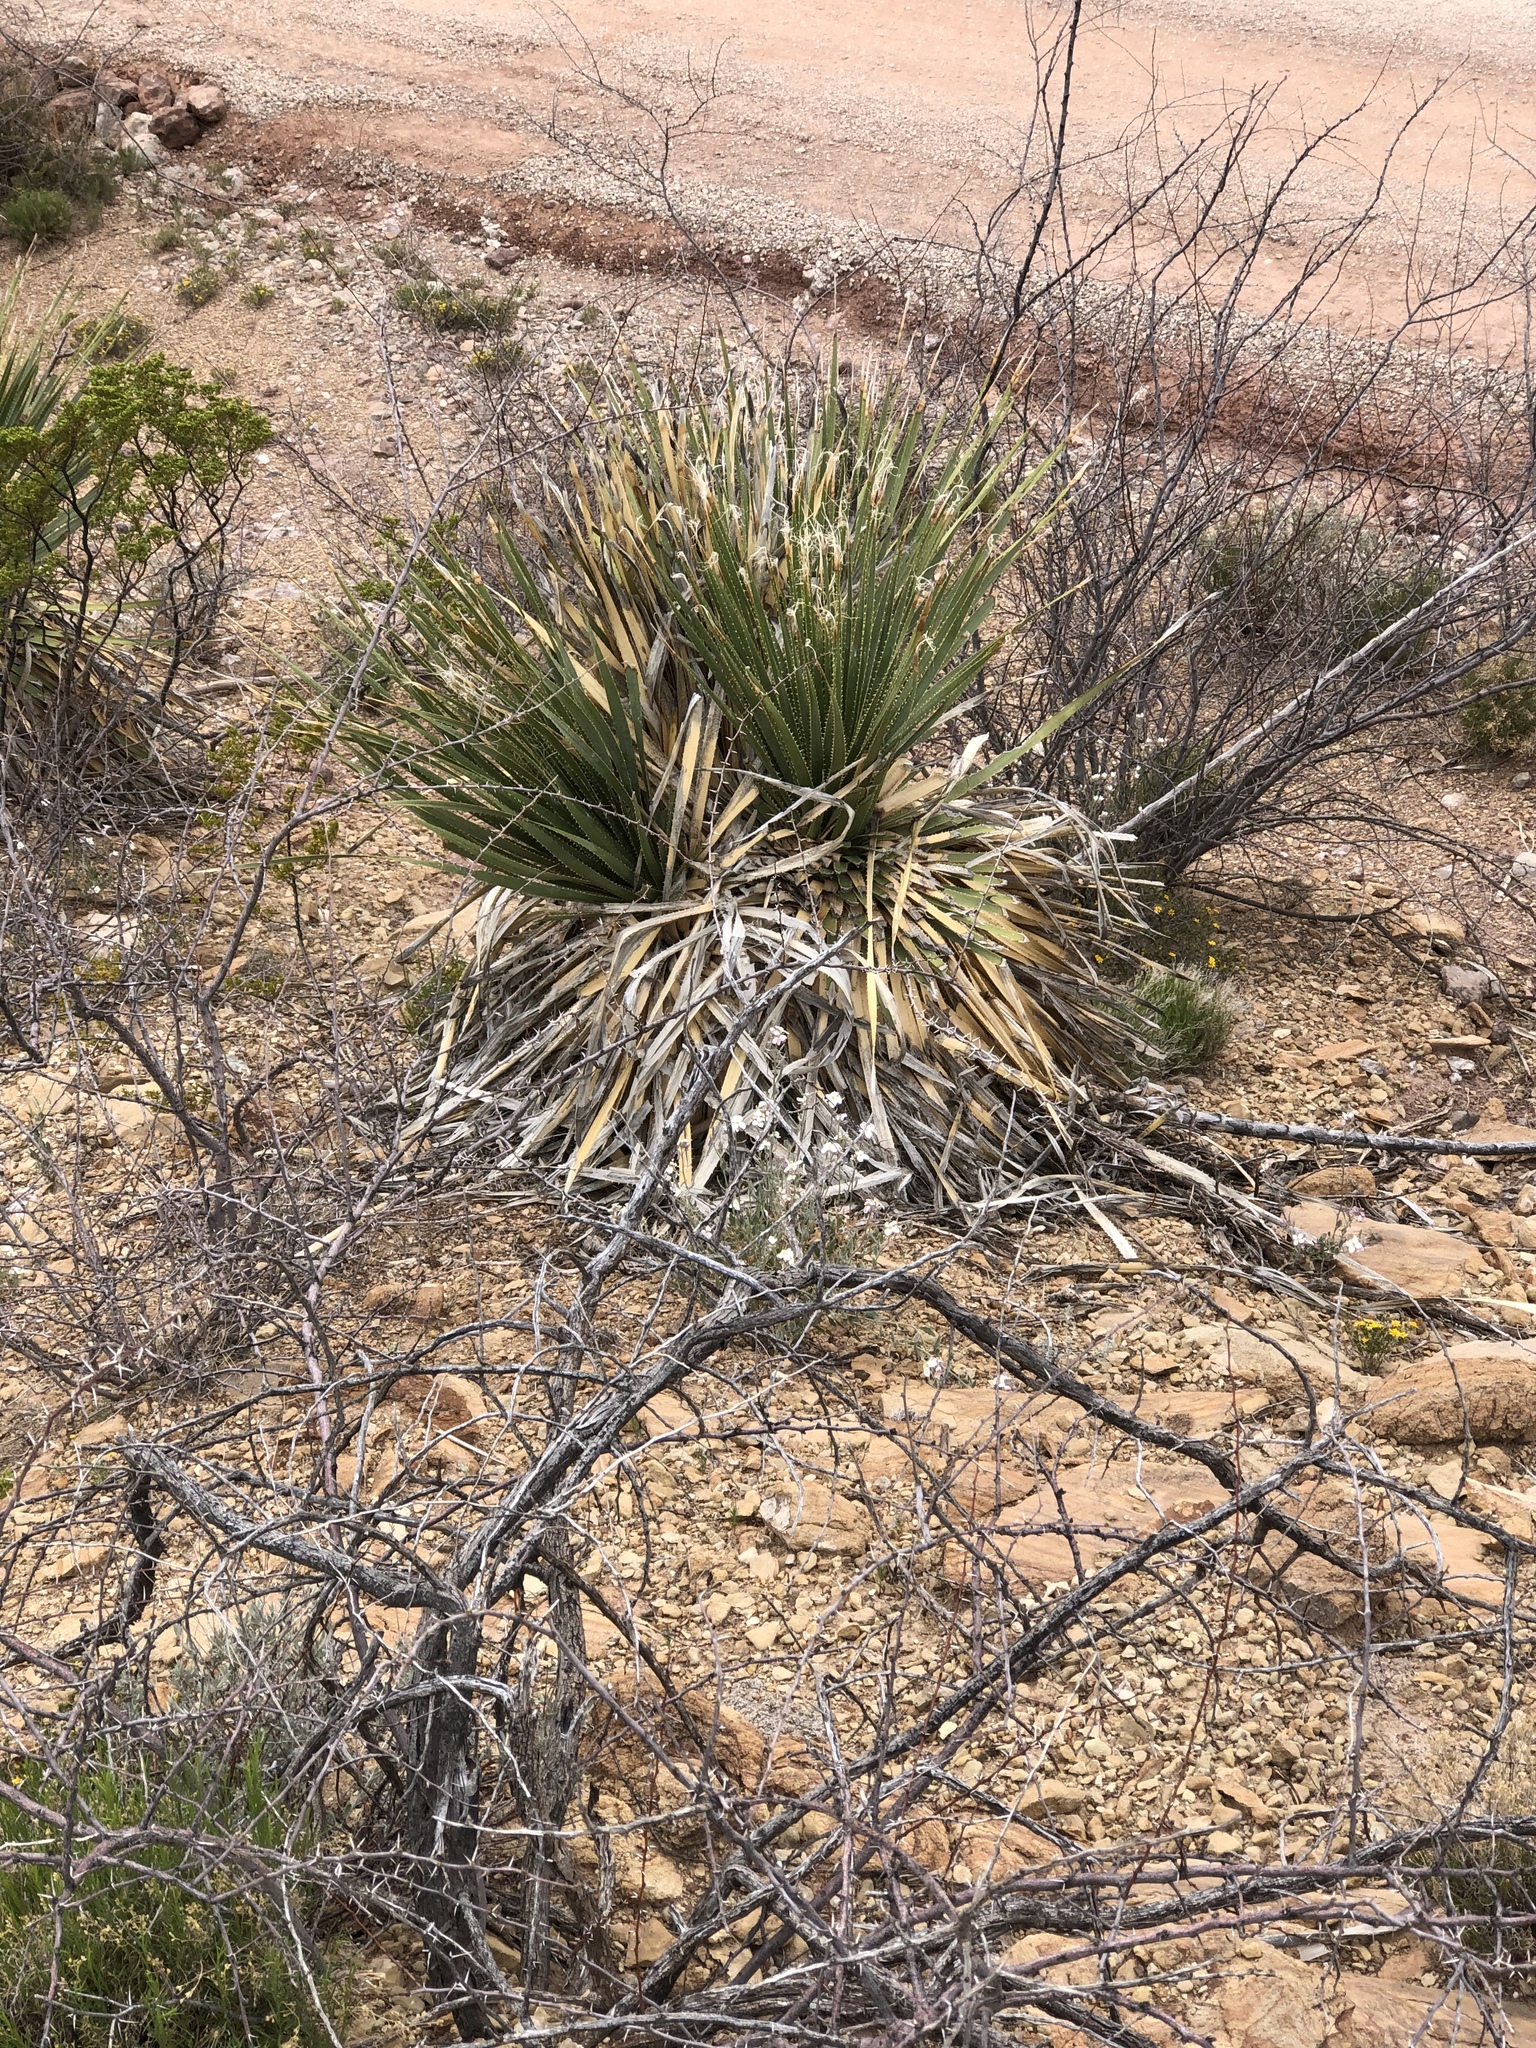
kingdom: Plantae
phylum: Tracheophyta
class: Liliopsida
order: Asparagales
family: Asparagaceae
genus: Dasylirion
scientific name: Dasylirion wheeleri
